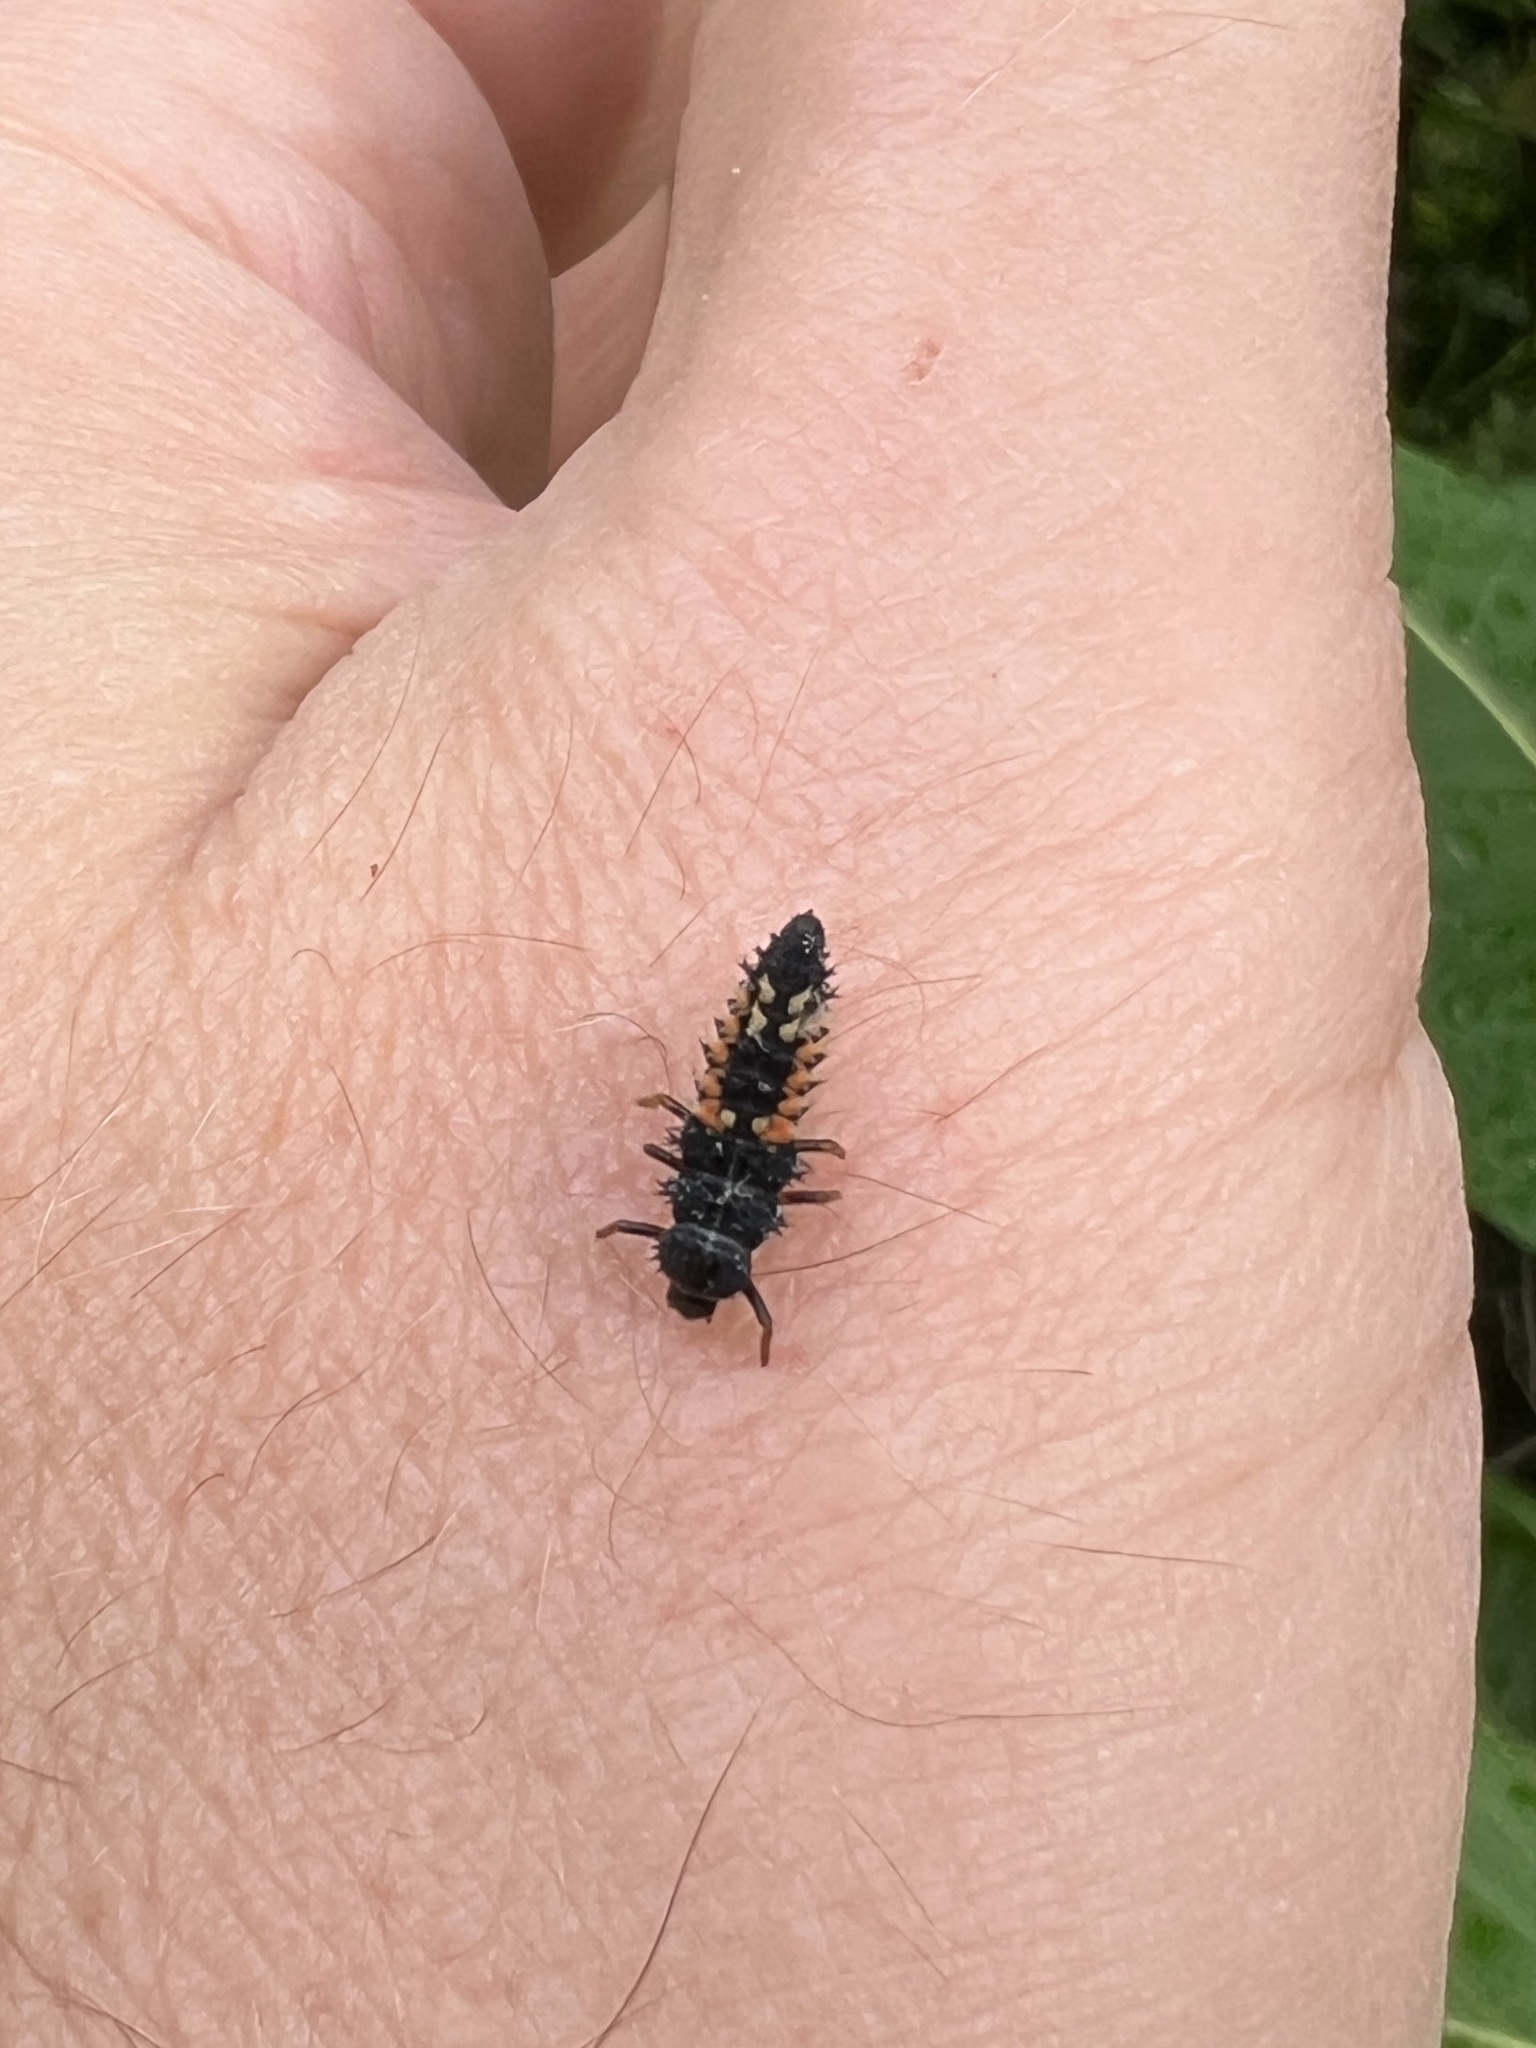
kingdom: Animalia
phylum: Arthropoda
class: Insecta
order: Coleoptera
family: Coccinellidae
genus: Harmonia
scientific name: Harmonia axyridis
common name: Harlequin ladybird
